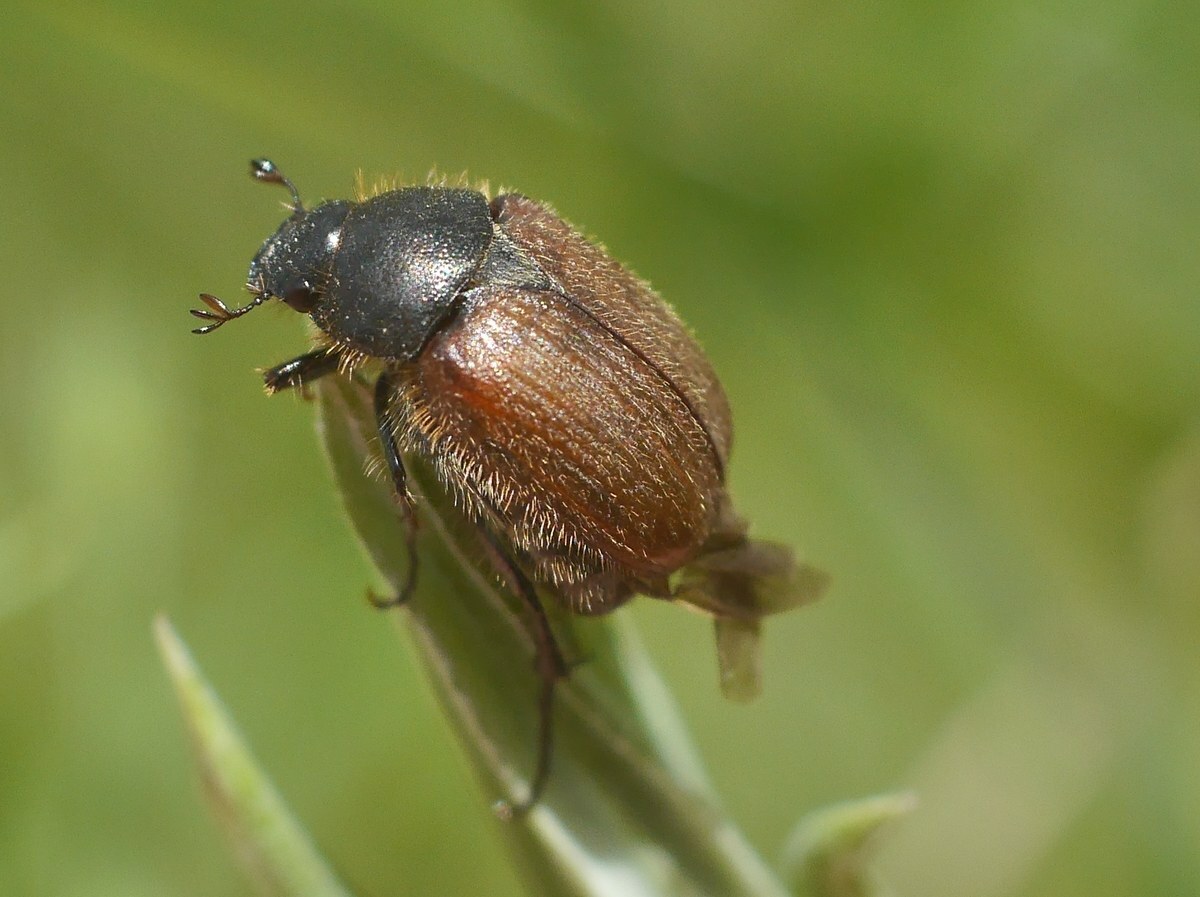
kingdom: Animalia
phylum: Arthropoda
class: Insecta
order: Coleoptera
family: Scarabaeidae
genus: Chaetopteroplia
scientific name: Chaetopteroplia segetum
